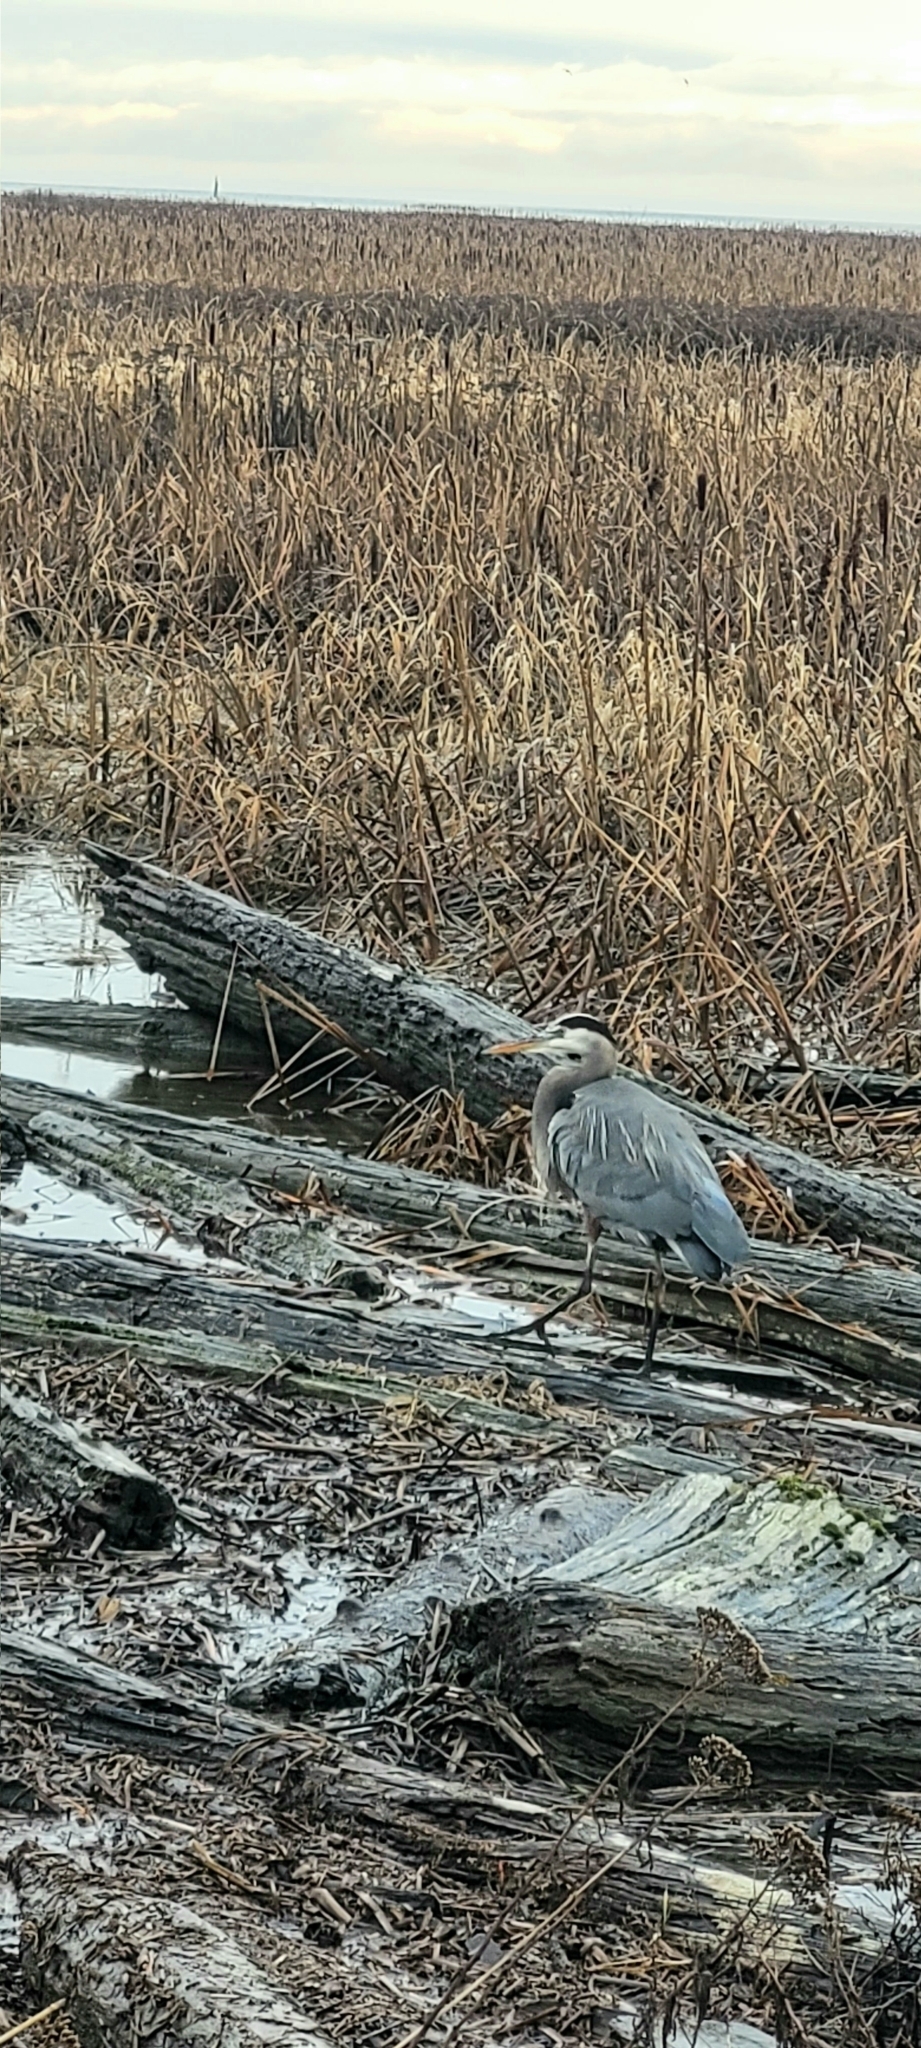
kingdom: Animalia
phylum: Chordata
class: Aves
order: Pelecaniformes
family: Ardeidae
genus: Ardea
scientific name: Ardea herodias
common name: Great blue heron
